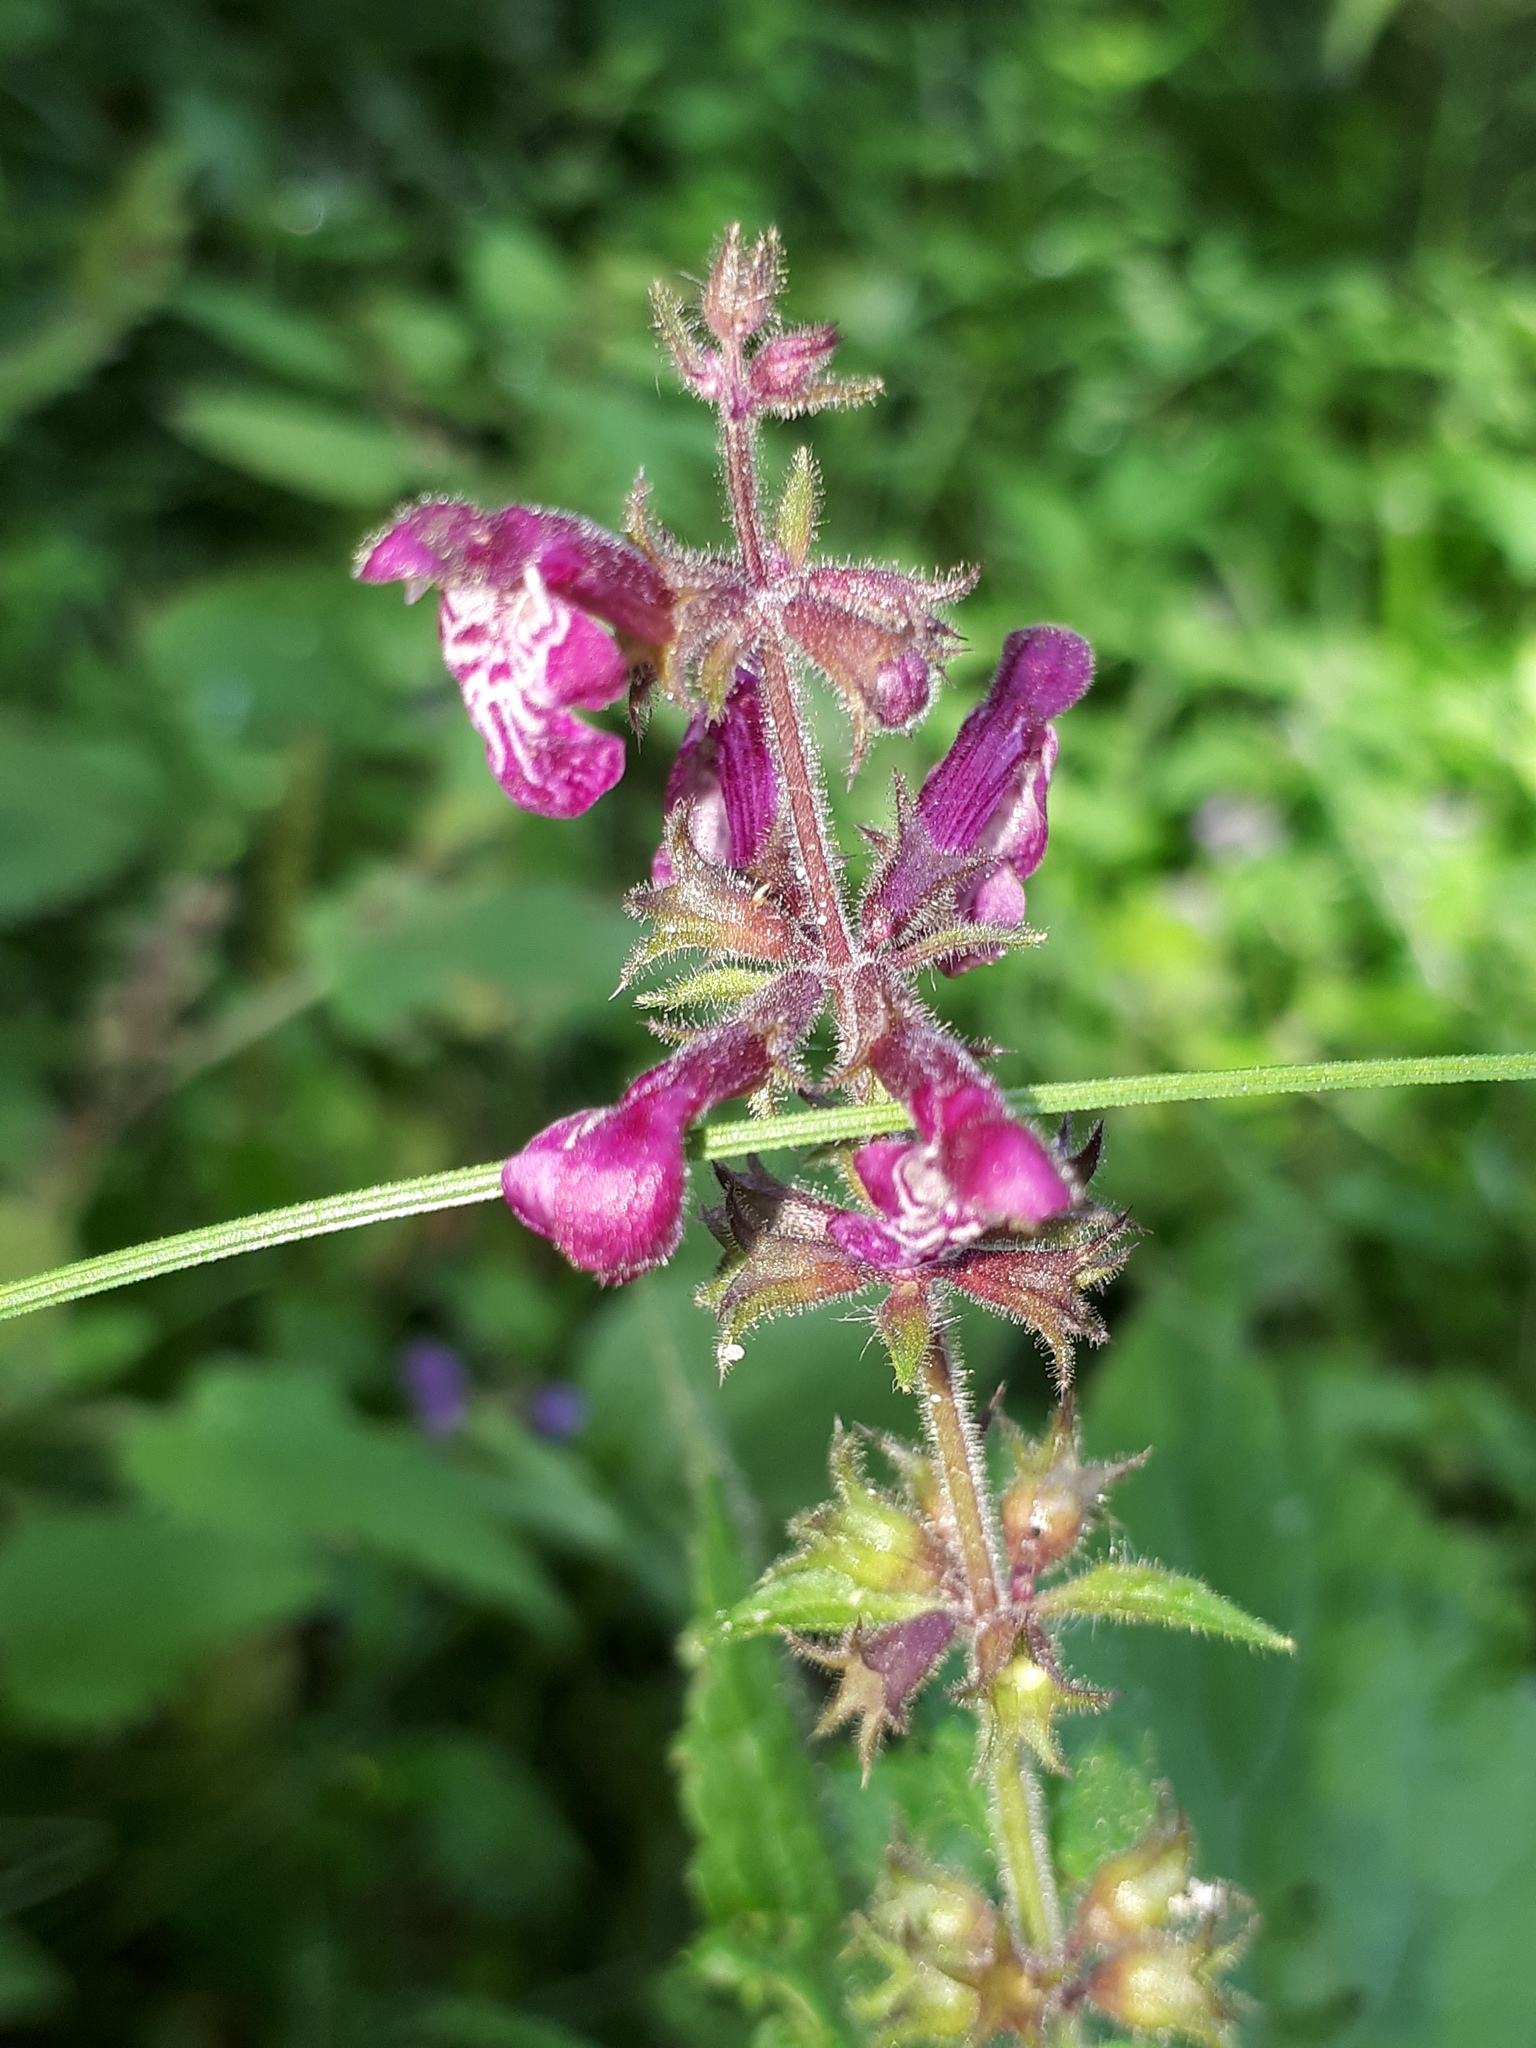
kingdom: Plantae
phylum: Tracheophyta
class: Magnoliopsida
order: Lamiales
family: Lamiaceae
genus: Stachys
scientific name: Stachys sylvatica
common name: Hedge woundwort
